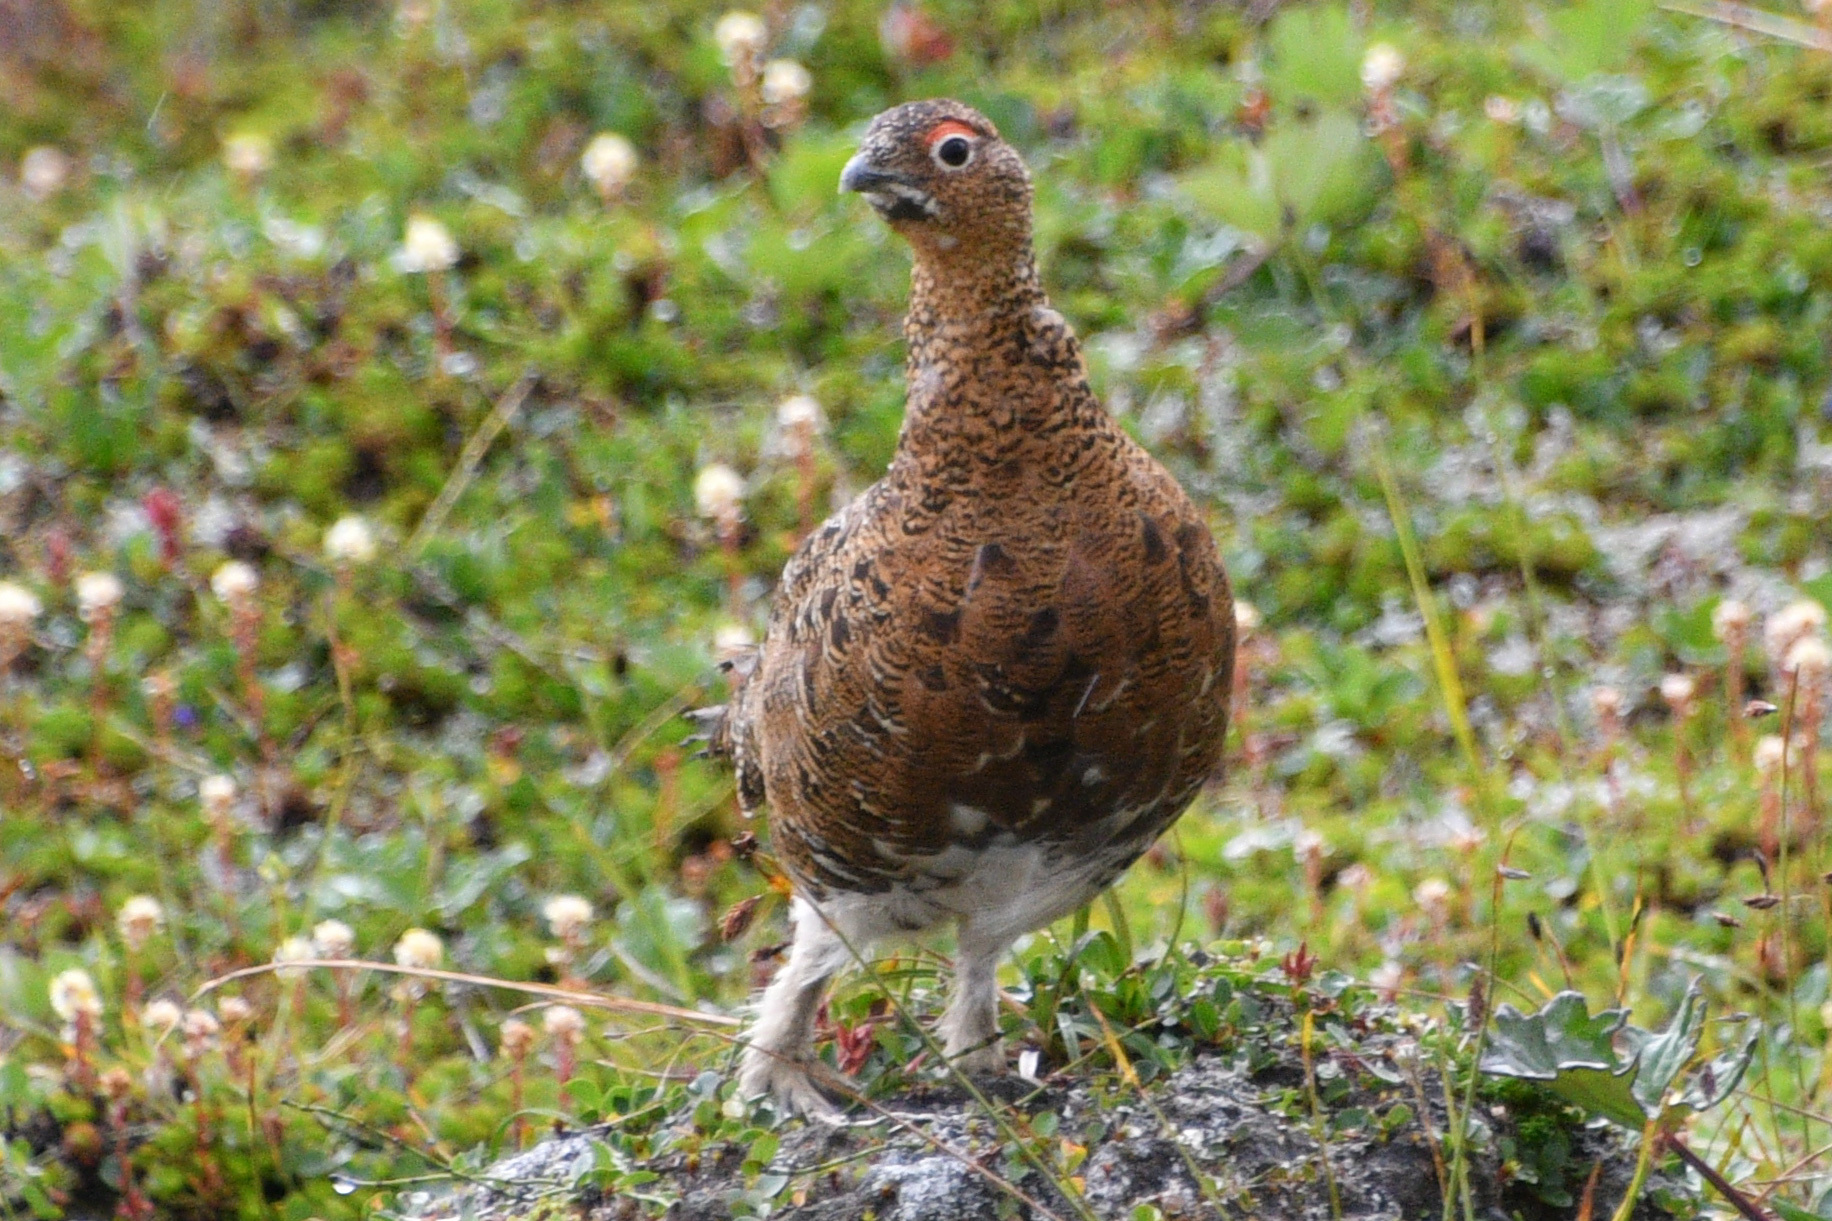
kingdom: Animalia
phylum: Chordata
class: Aves
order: Galliformes
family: Phasianidae
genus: Lagopus
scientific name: Lagopus lagopus
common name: Willow ptarmigan
